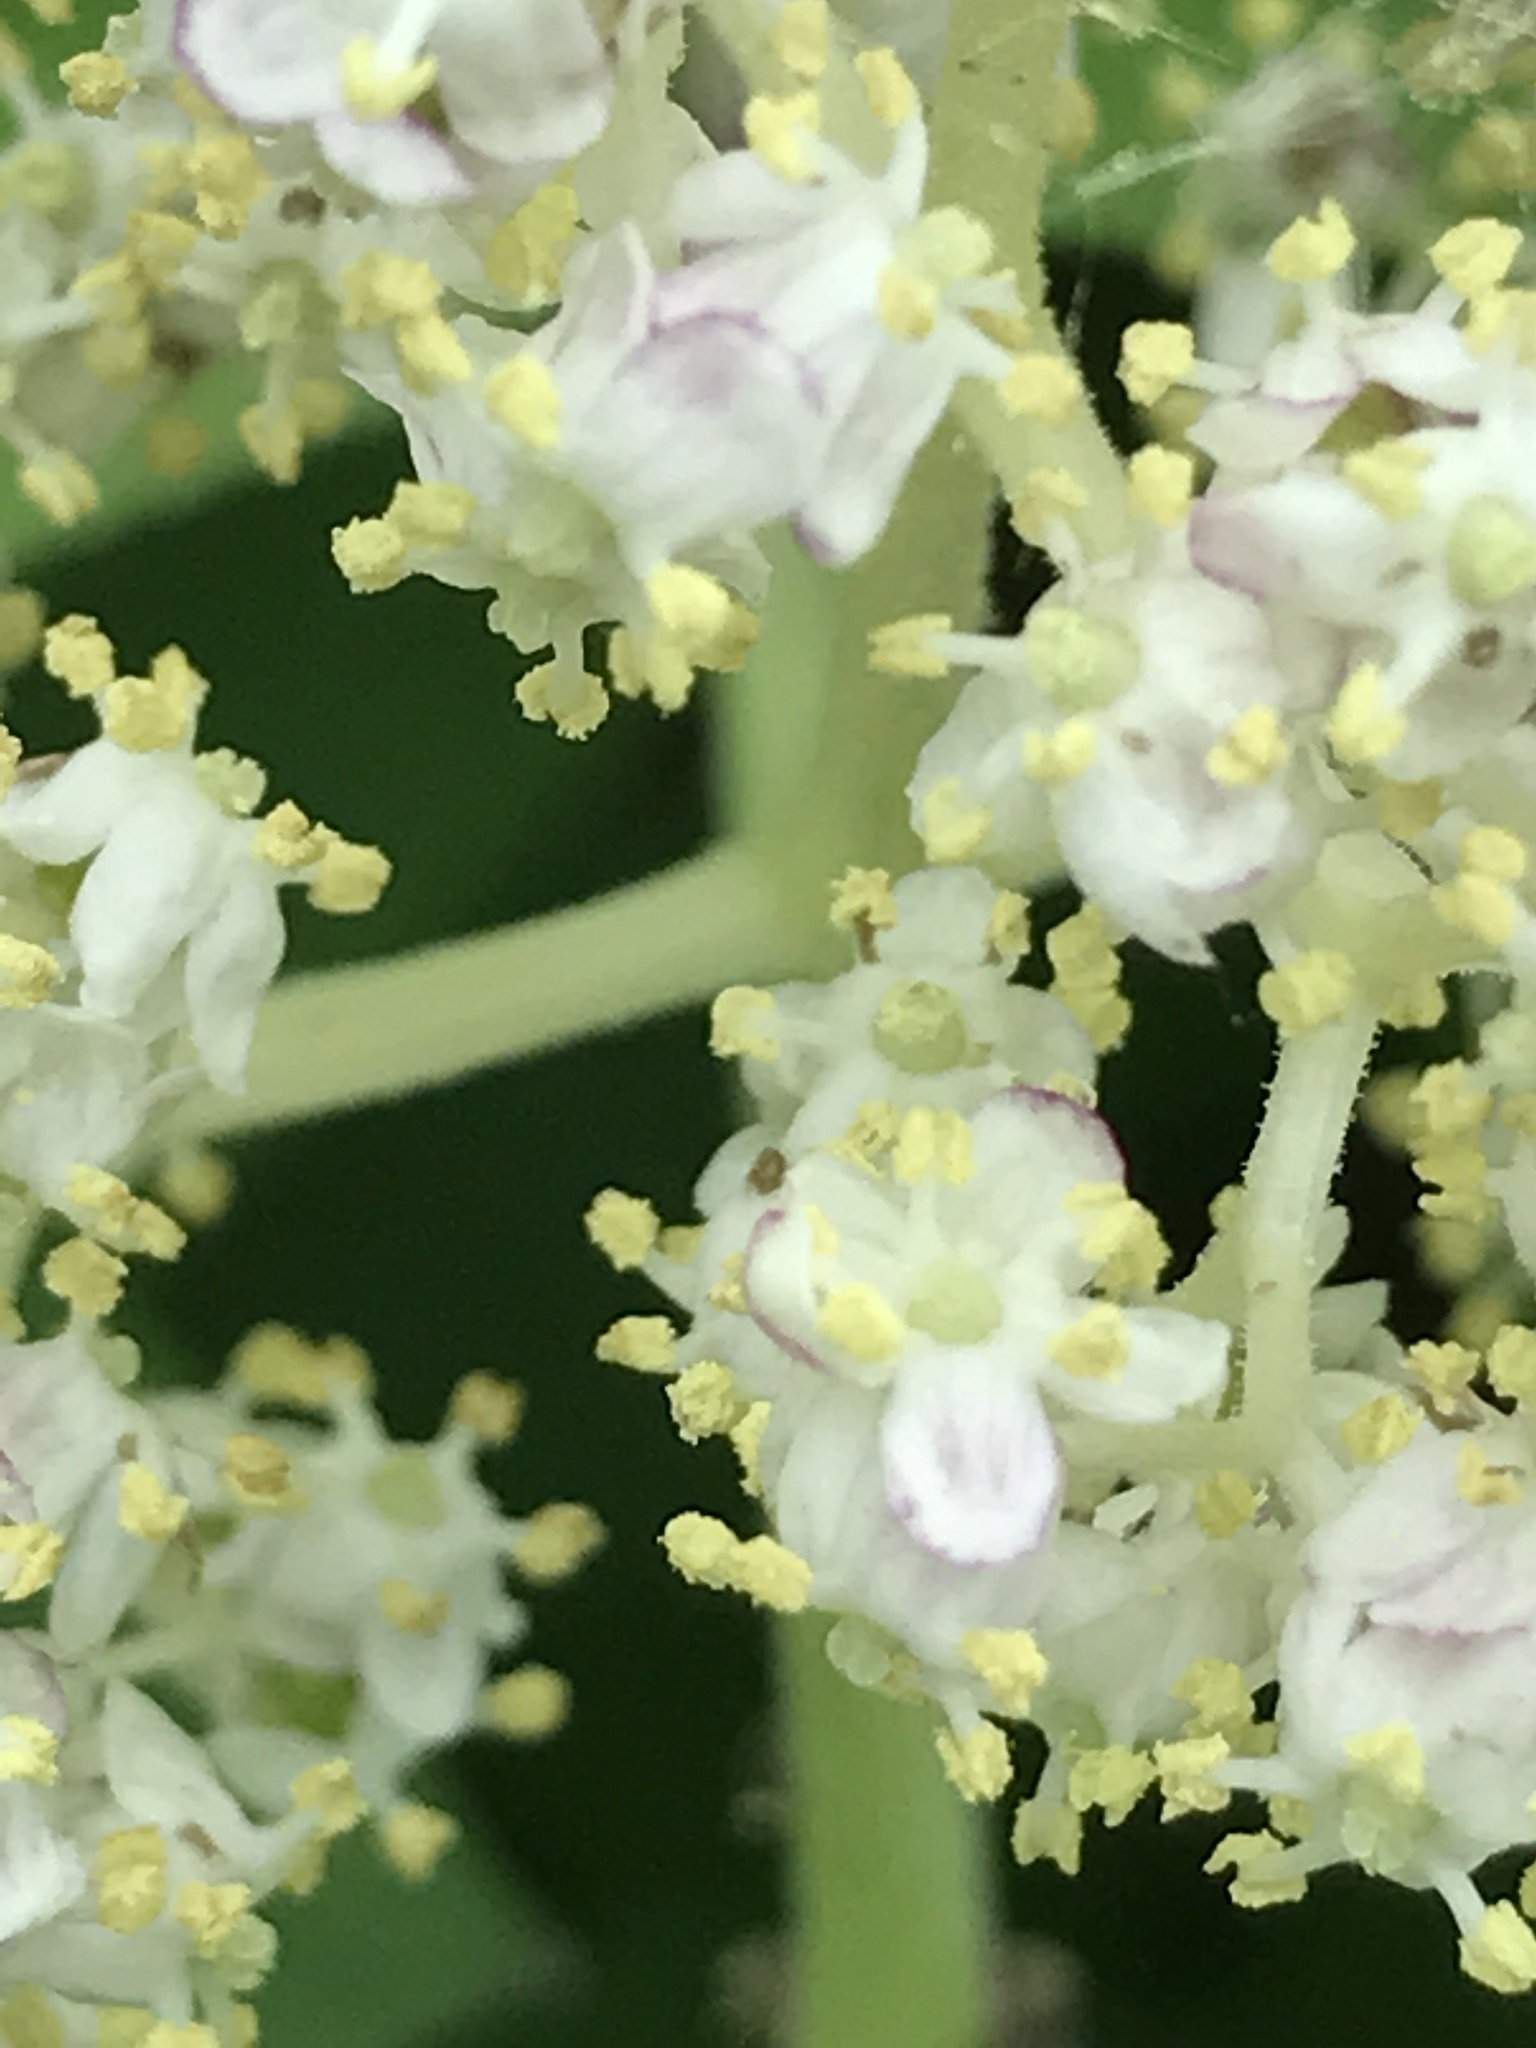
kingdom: Plantae
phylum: Tracheophyta
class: Magnoliopsida
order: Dipsacales
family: Viburnaceae
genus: Sambucus
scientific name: Sambucus racemosa
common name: Red-berried elder
